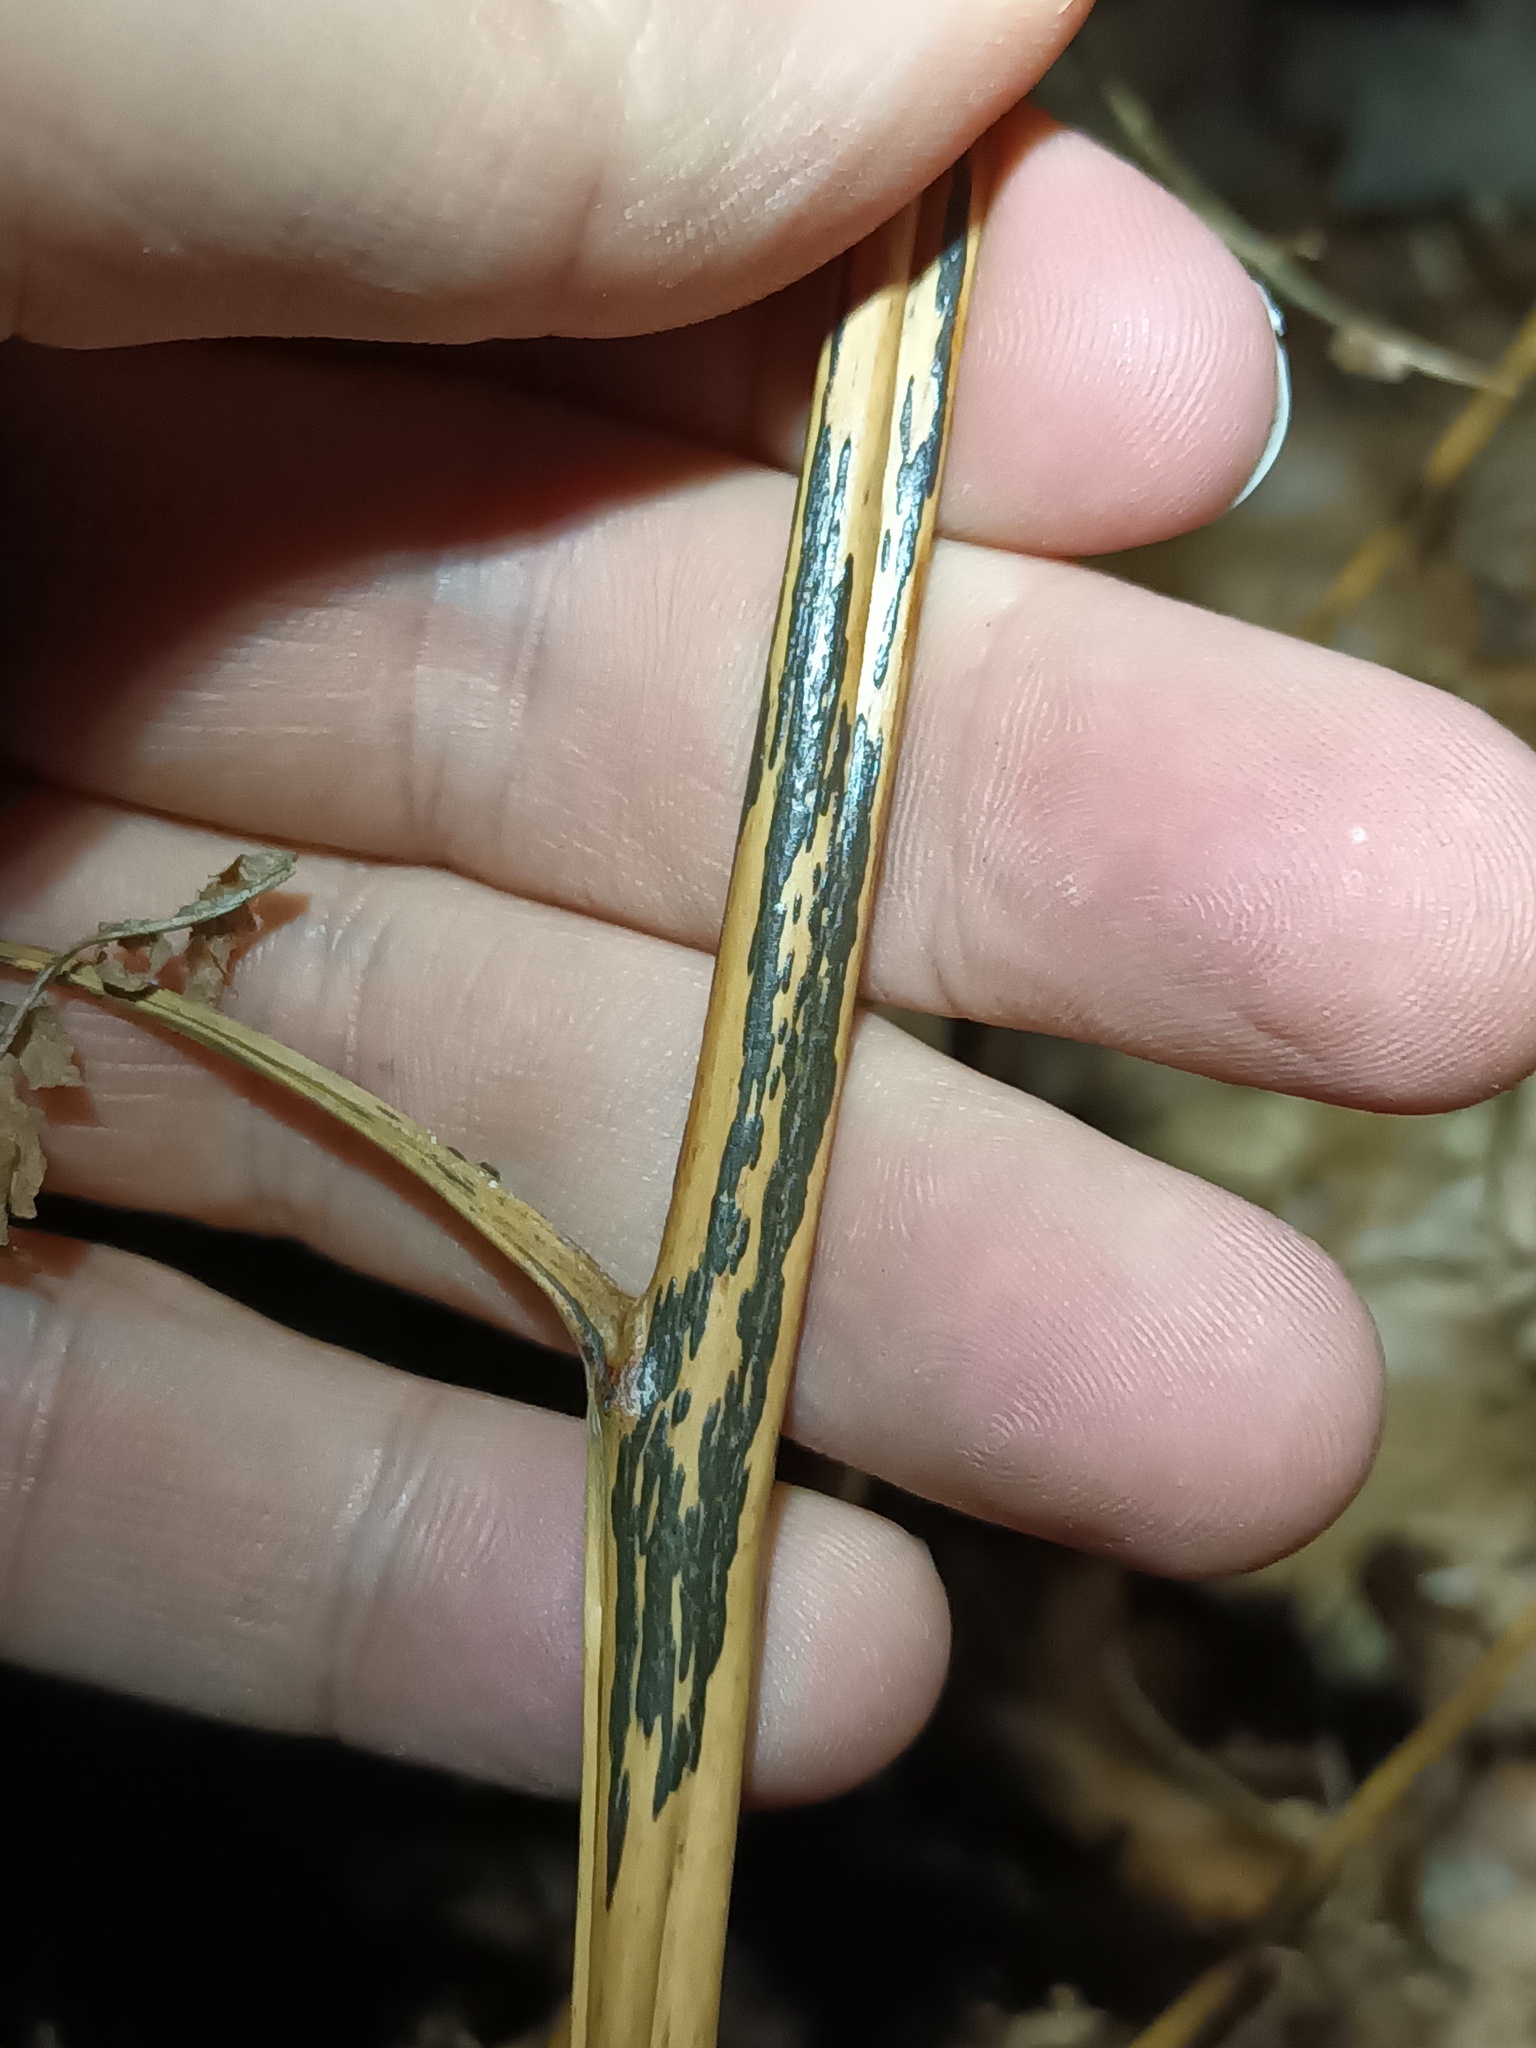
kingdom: Fungi
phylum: Ascomycota
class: Dothideomycetes
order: Pleosporales
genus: Rhopographus
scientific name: Rhopographus filicinus
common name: Bracken map
